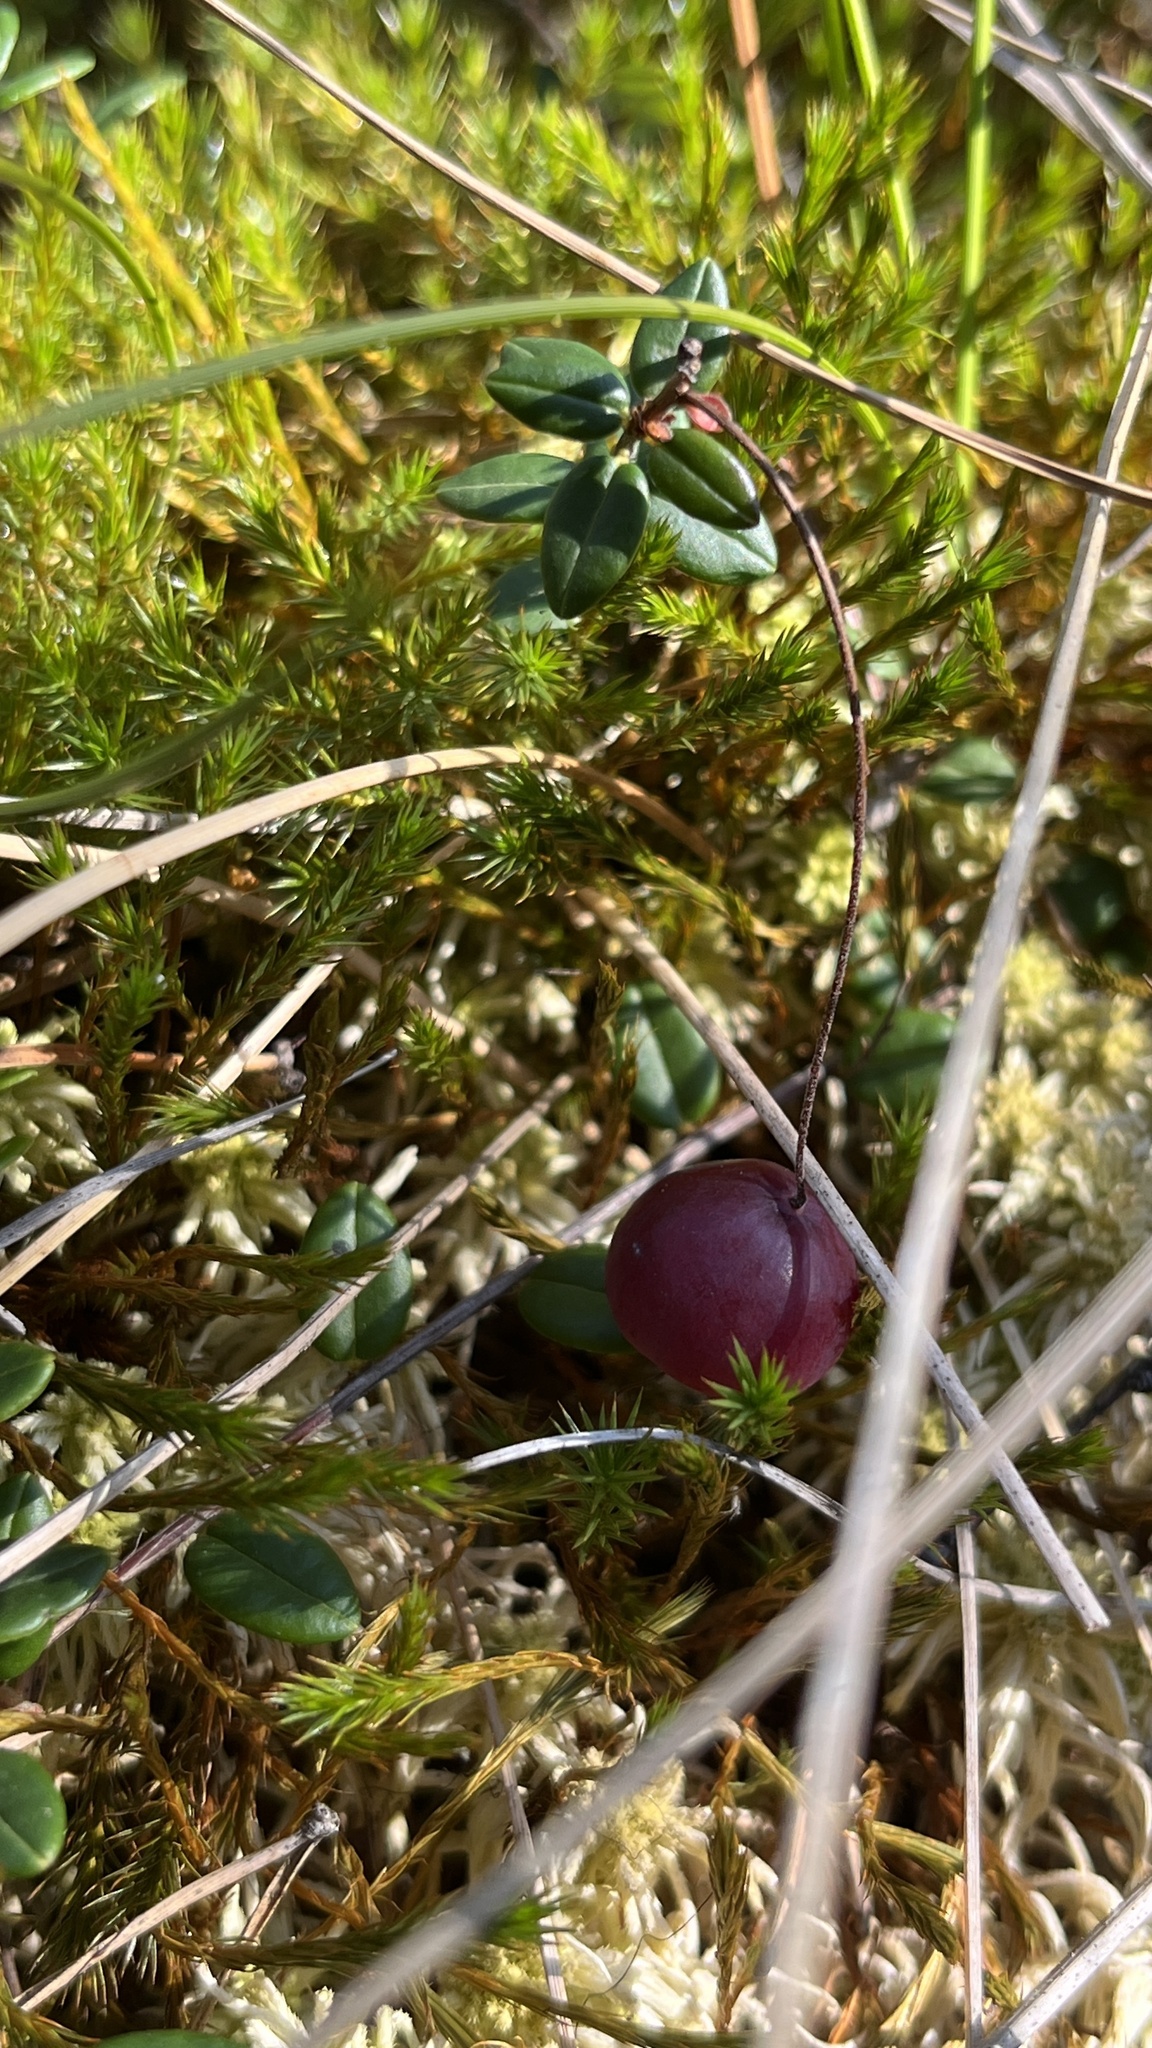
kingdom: Plantae
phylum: Tracheophyta
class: Magnoliopsida
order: Ericales
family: Ericaceae
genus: Vaccinium
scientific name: Vaccinium oxycoccos
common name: Cranberry
